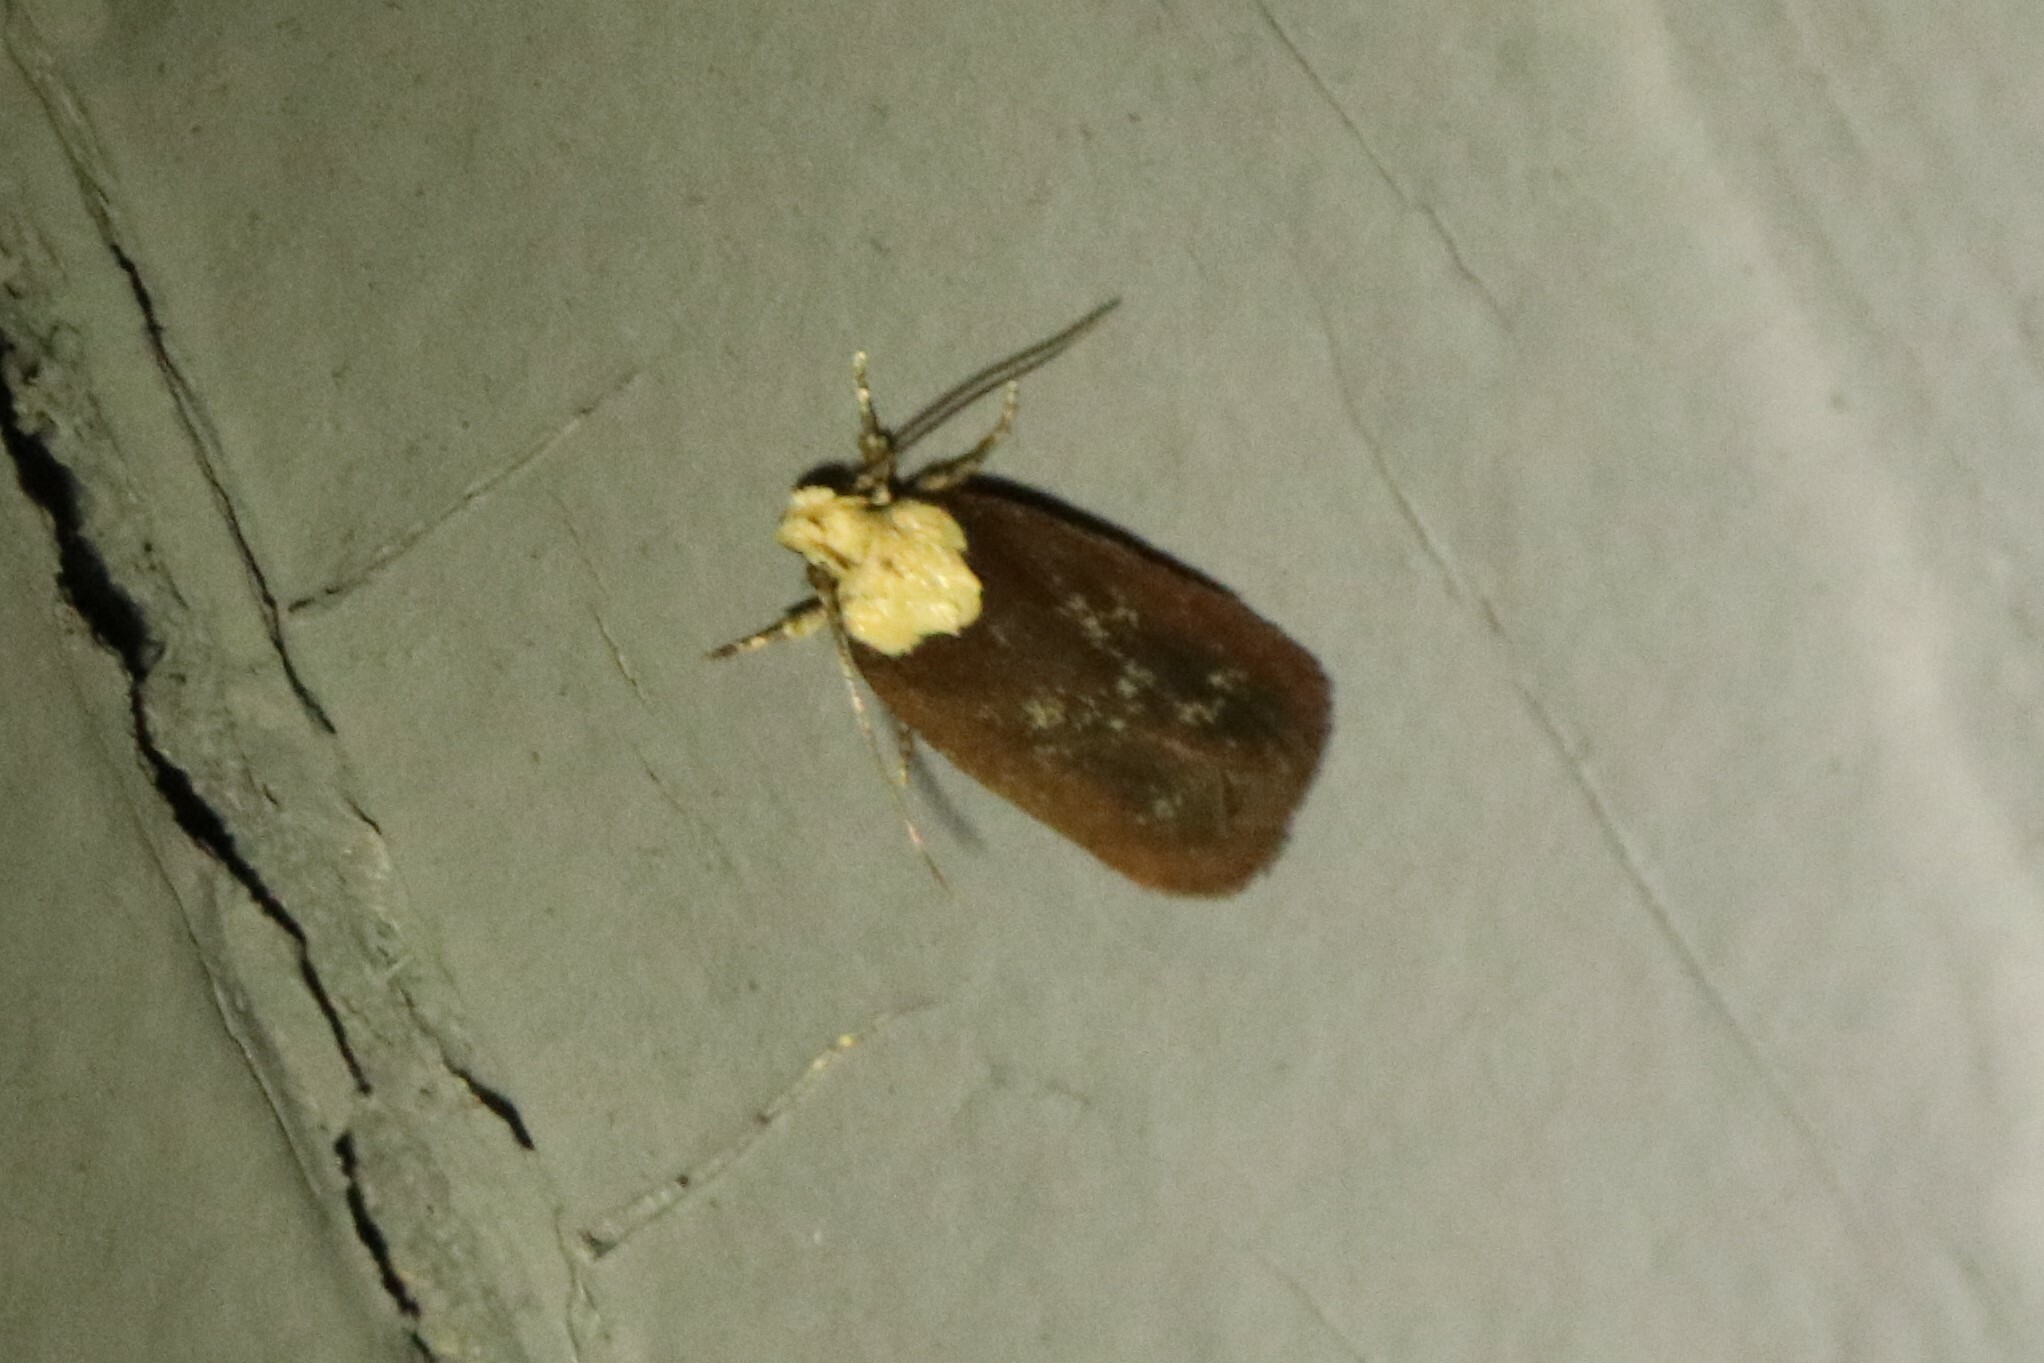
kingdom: Animalia
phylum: Arthropoda
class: Insecta
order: Lepidoptera
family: Depressariidae
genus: Depressaria
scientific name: Depressaria depressana
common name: Lost flat-body
